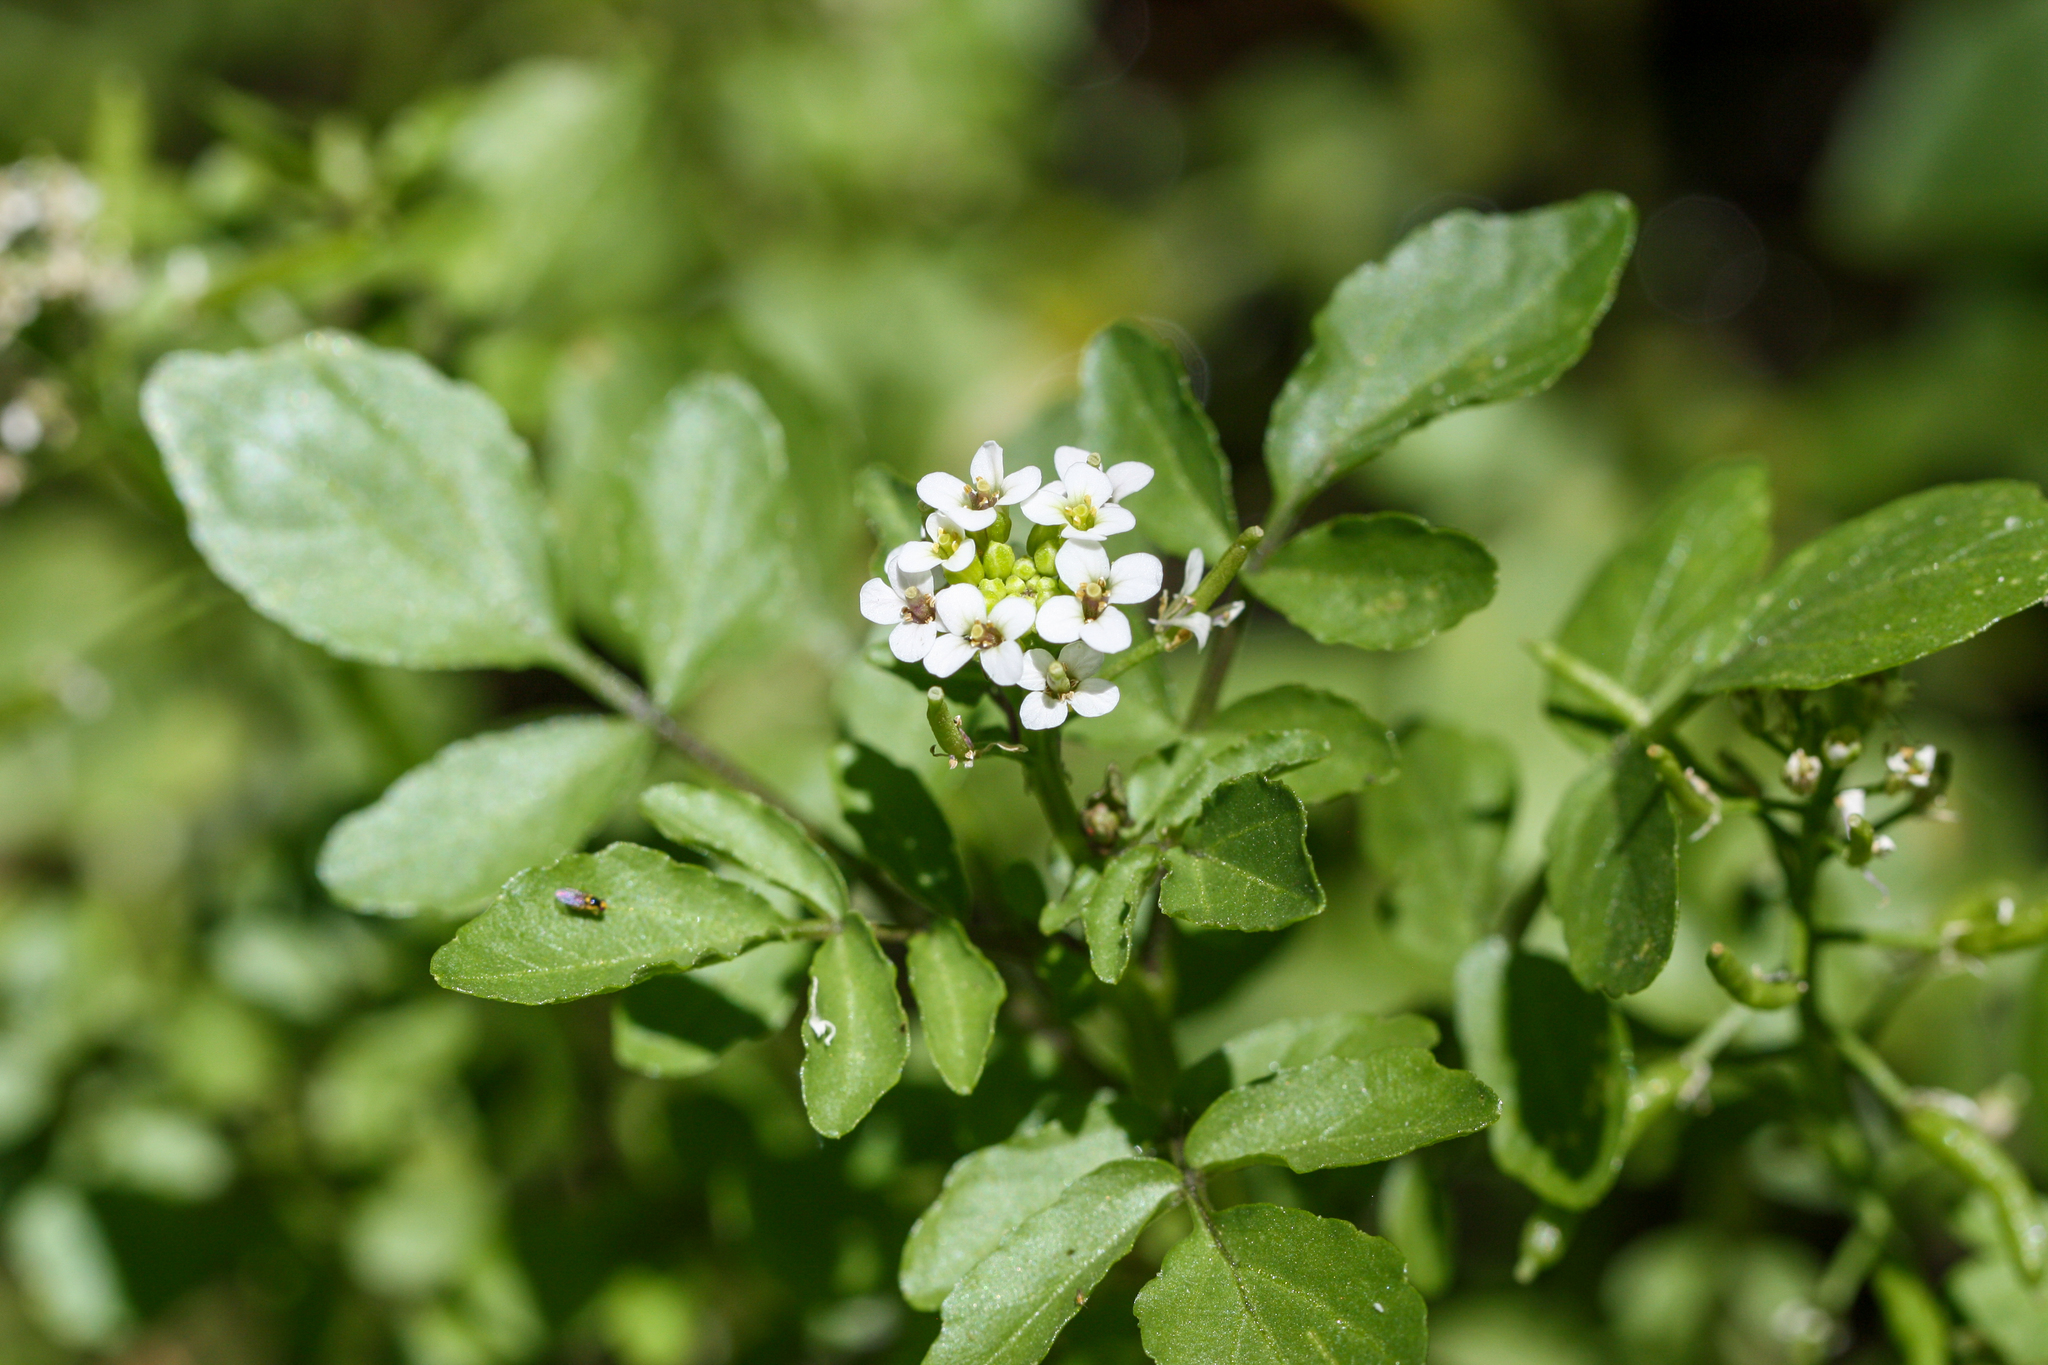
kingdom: Plantae
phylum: Tracheophyta
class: Magnoliopsida
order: Brassicales
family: Brassicaceae
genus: Nasturtium
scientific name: Nasturtium officinale
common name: Watercress
